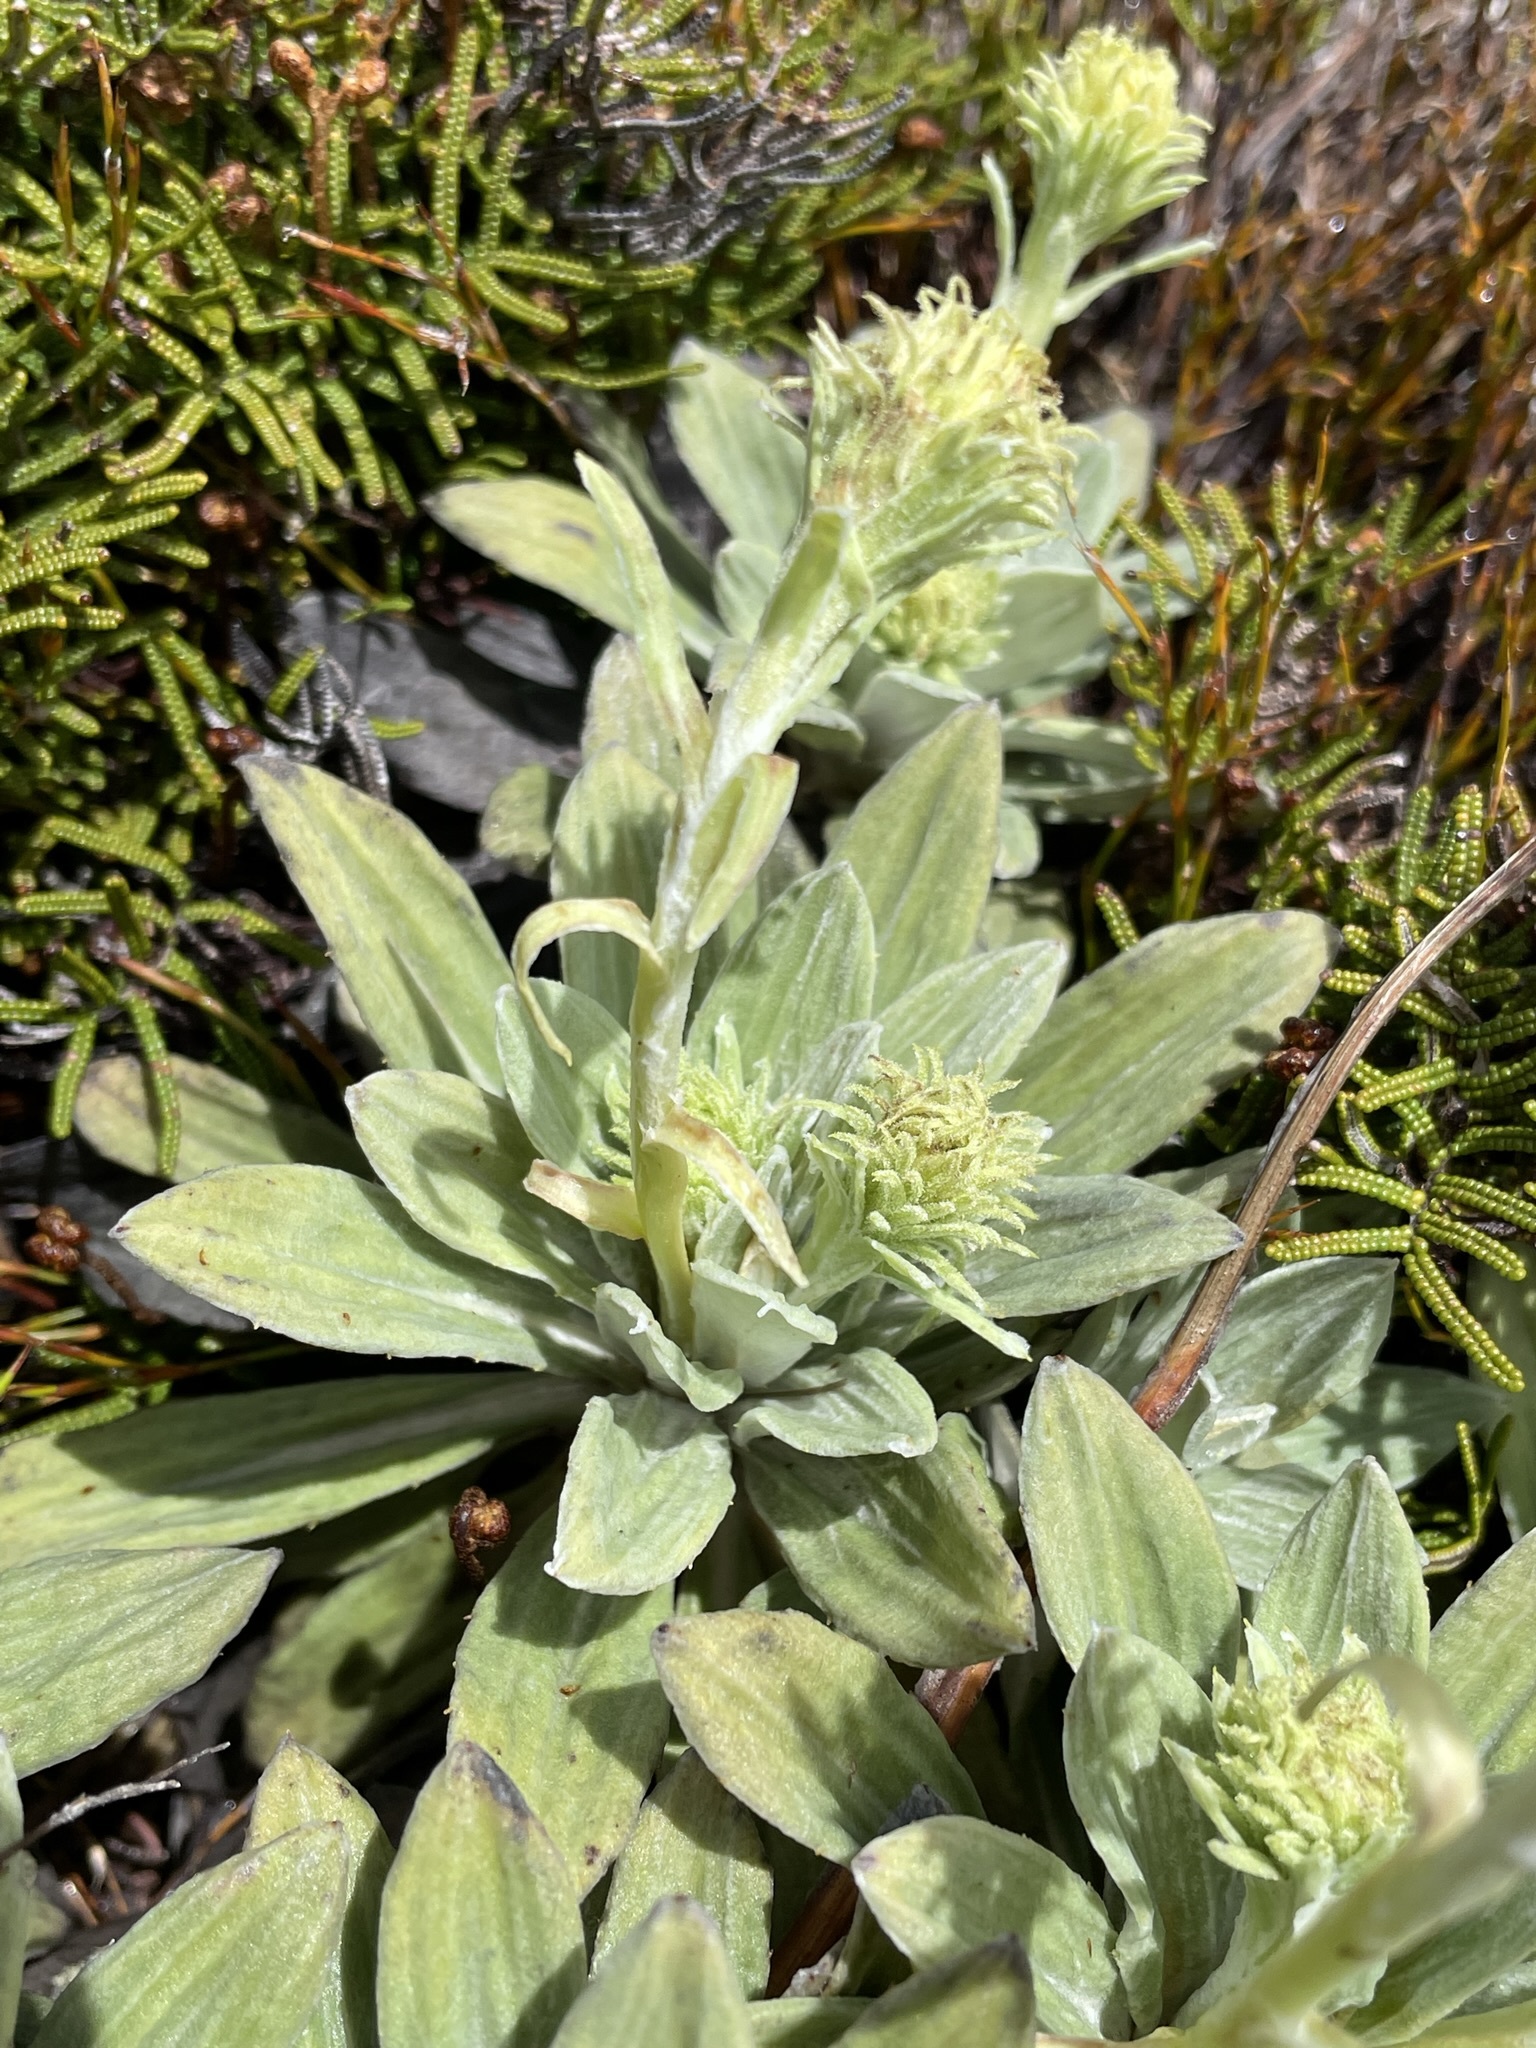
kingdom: Plantae
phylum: Tracheophyta
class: Magnoliopsida
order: Asterales
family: Asteraceae
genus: Celmisia
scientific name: Celmisia incana
